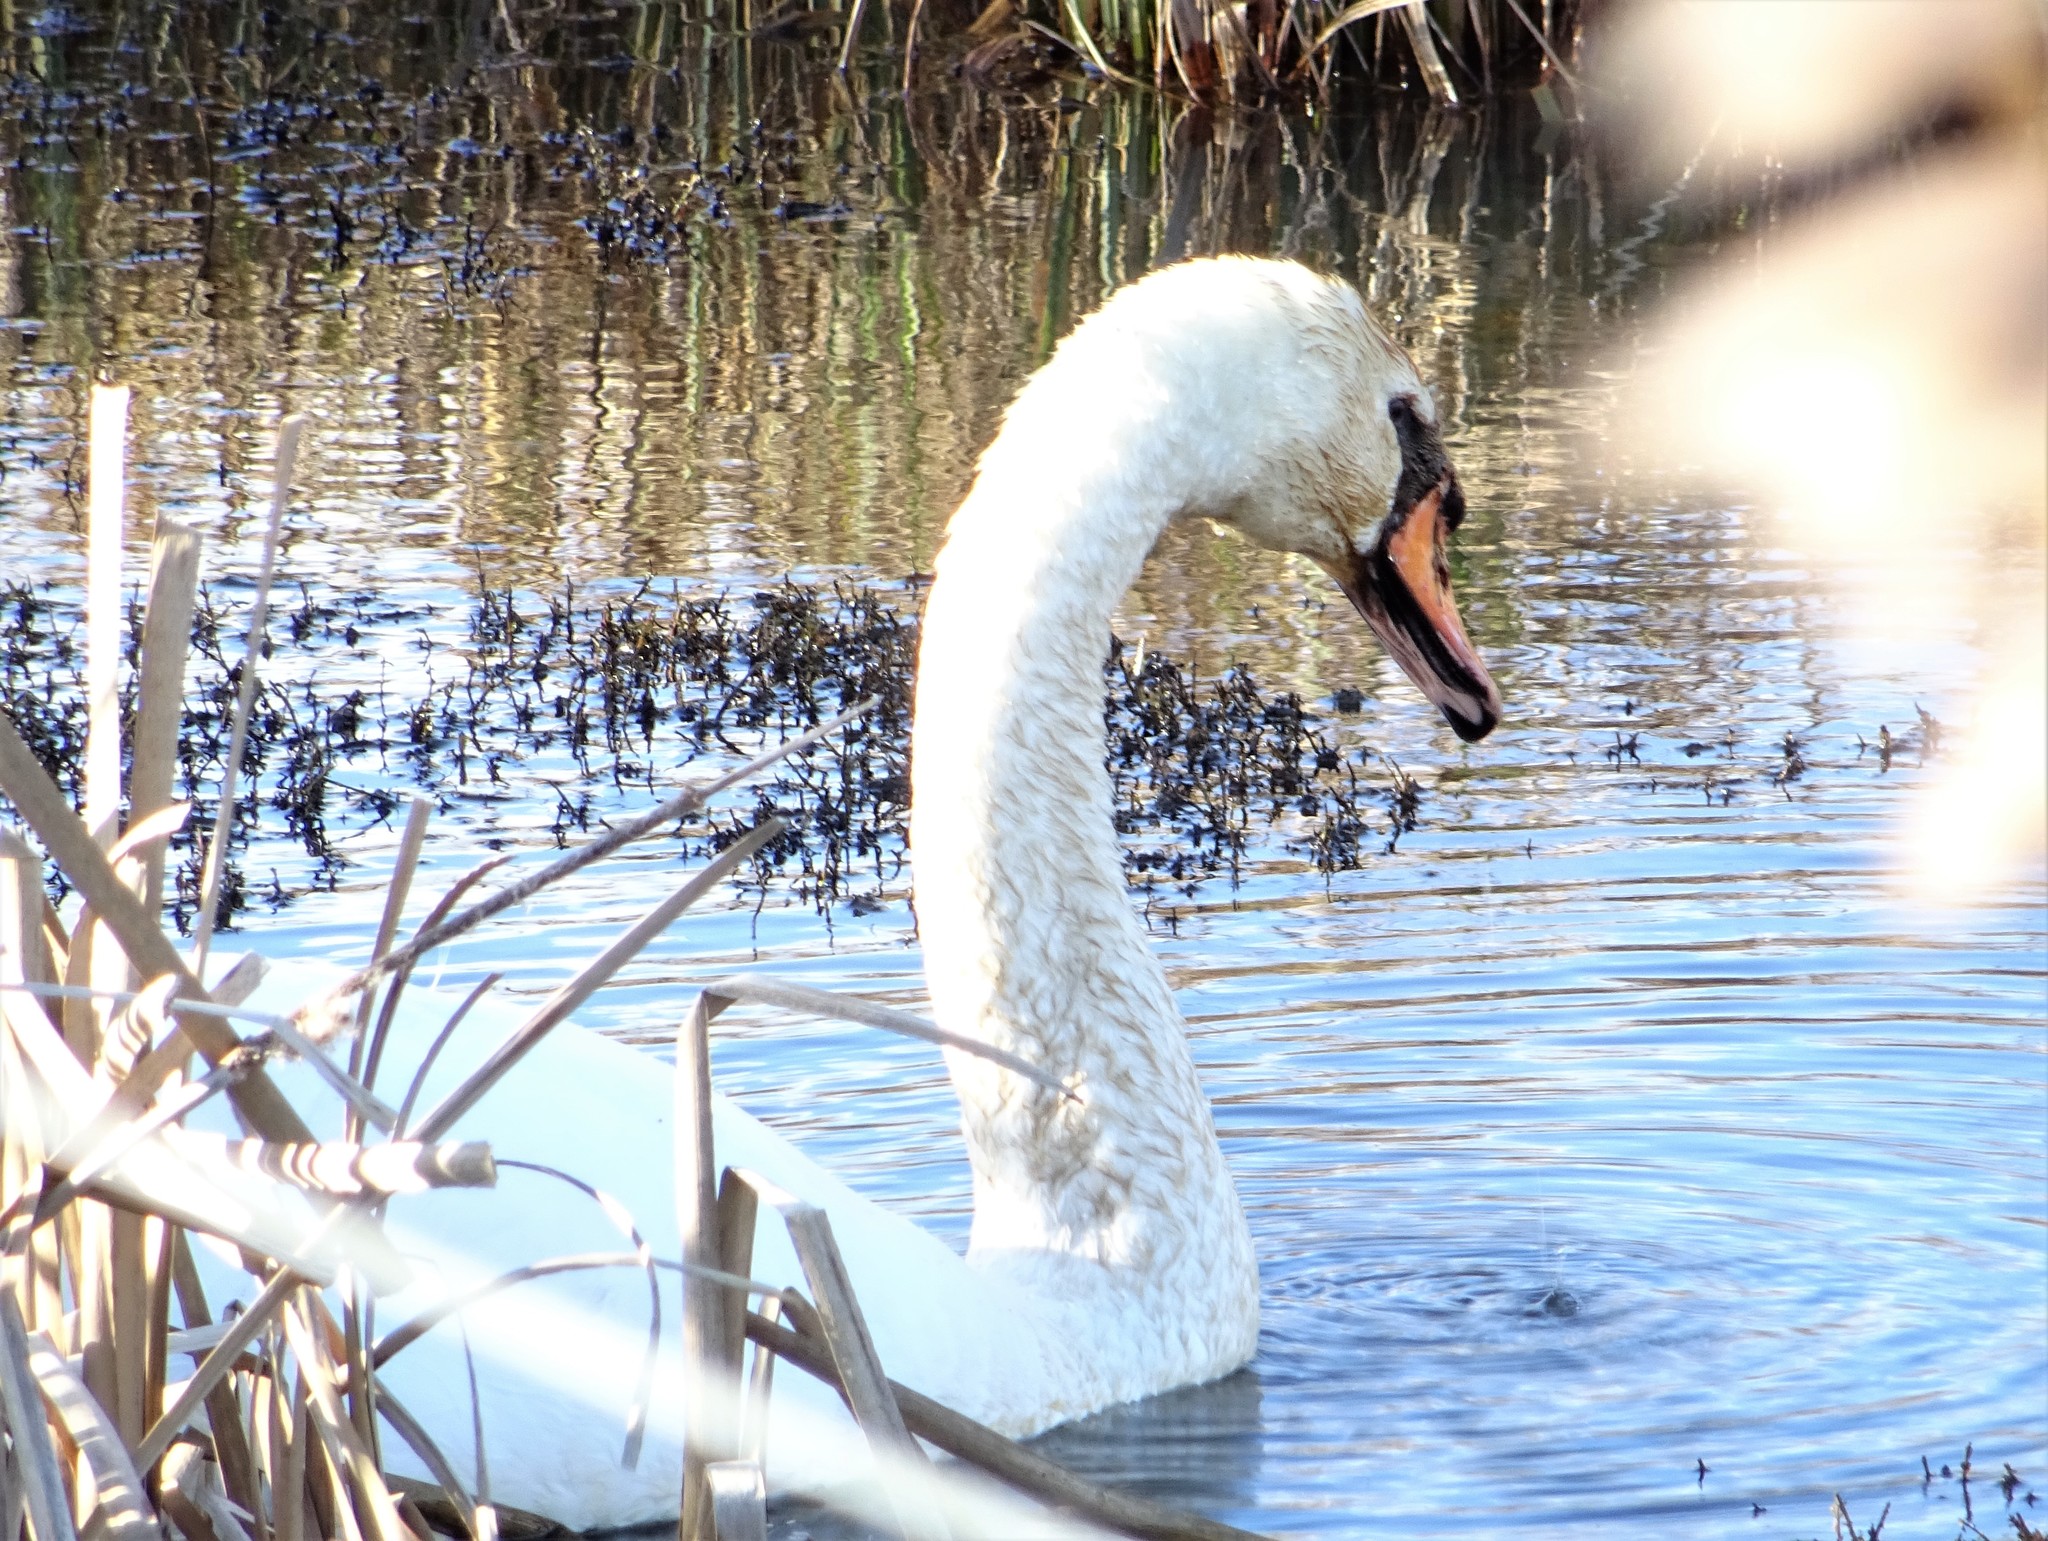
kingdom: Animalia
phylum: Chordata
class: Aves
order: Anseriformes
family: Anatidae
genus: Cygnus
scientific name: Cygnus olor
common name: Mute swan
